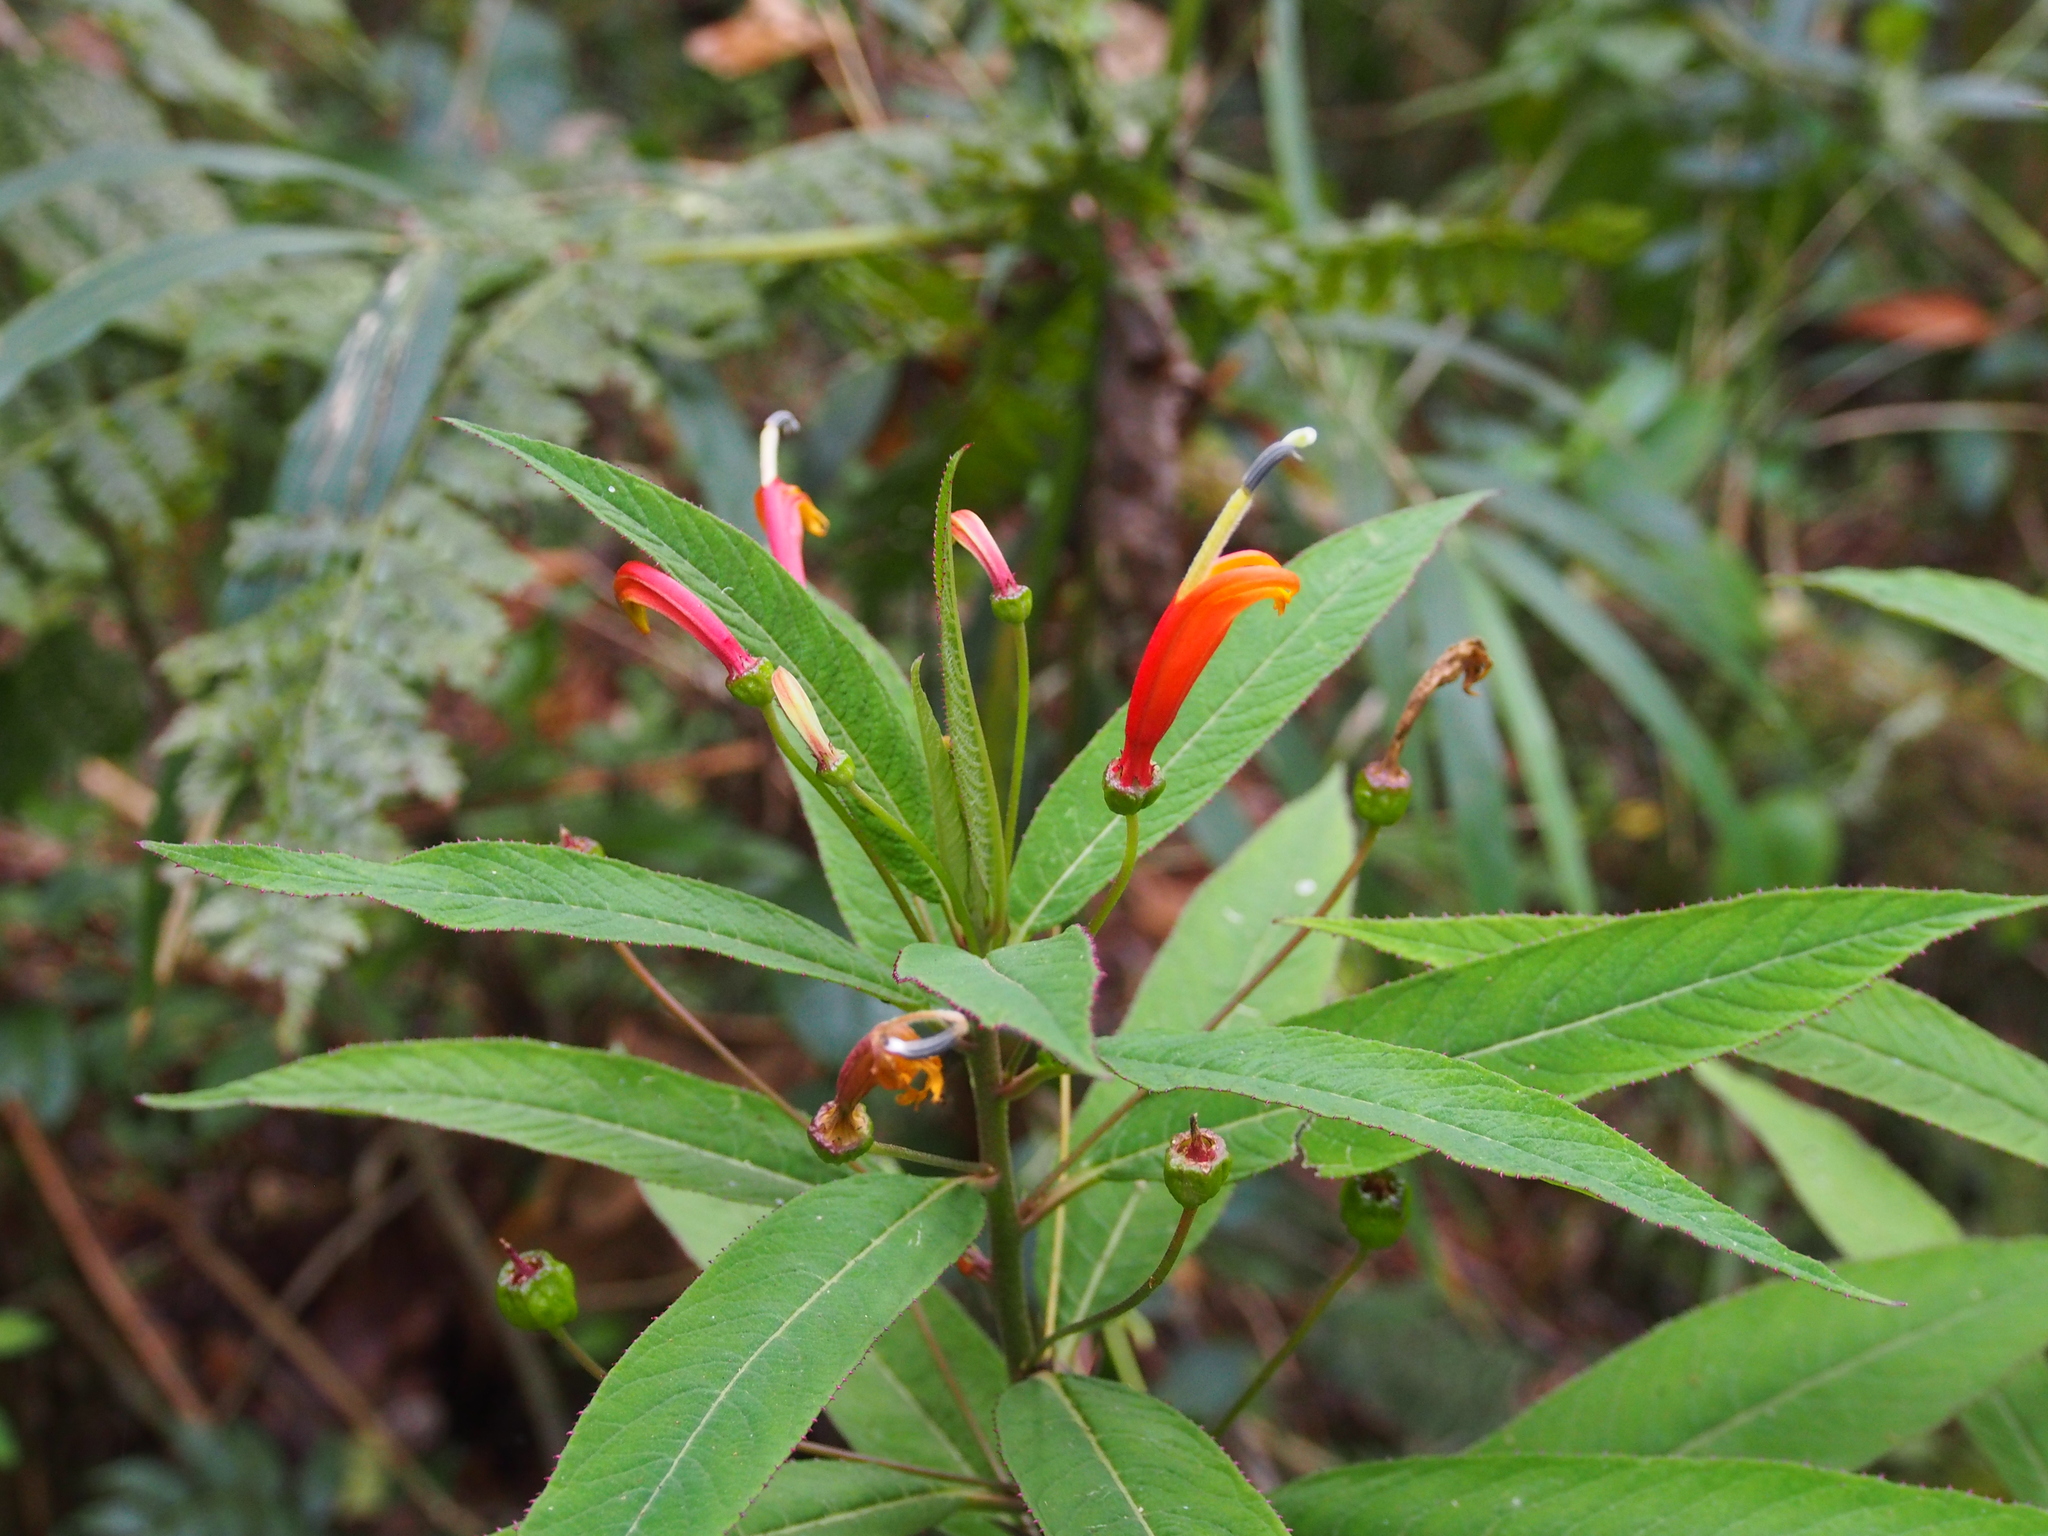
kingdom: Plantae
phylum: Tracheophyta
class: Magnoliopsida
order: Asterales
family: Campanulaceae
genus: Centropogon
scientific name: Centropogon valerii
